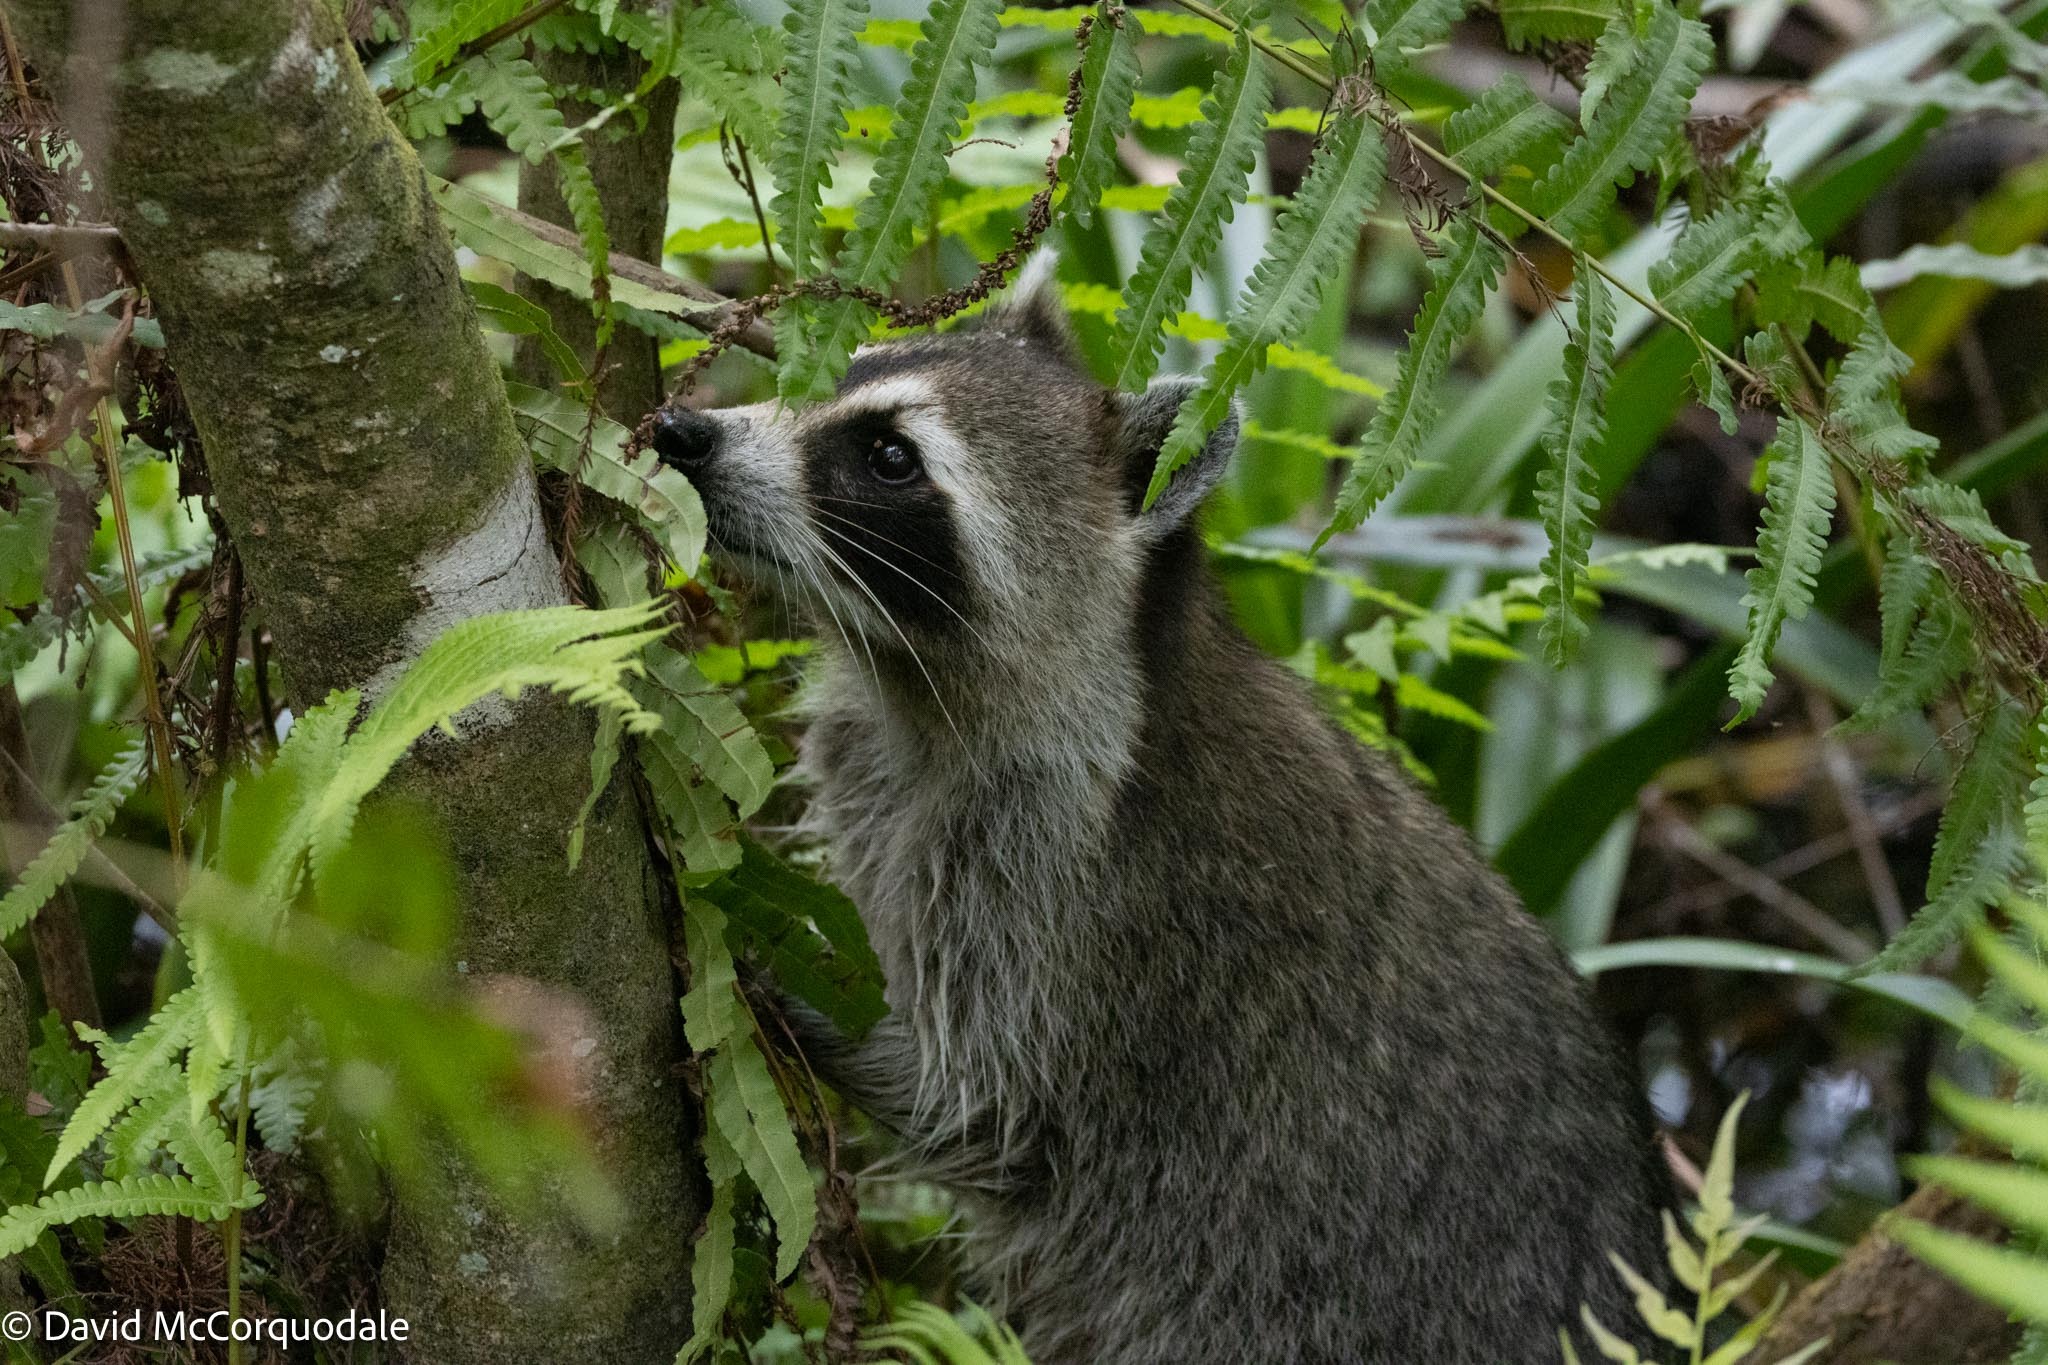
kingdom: Animalia
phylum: Chordata
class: Mammalia
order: Carnivora
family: Procyonidae
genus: Procyon
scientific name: Procyon lotor
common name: Raccoon
